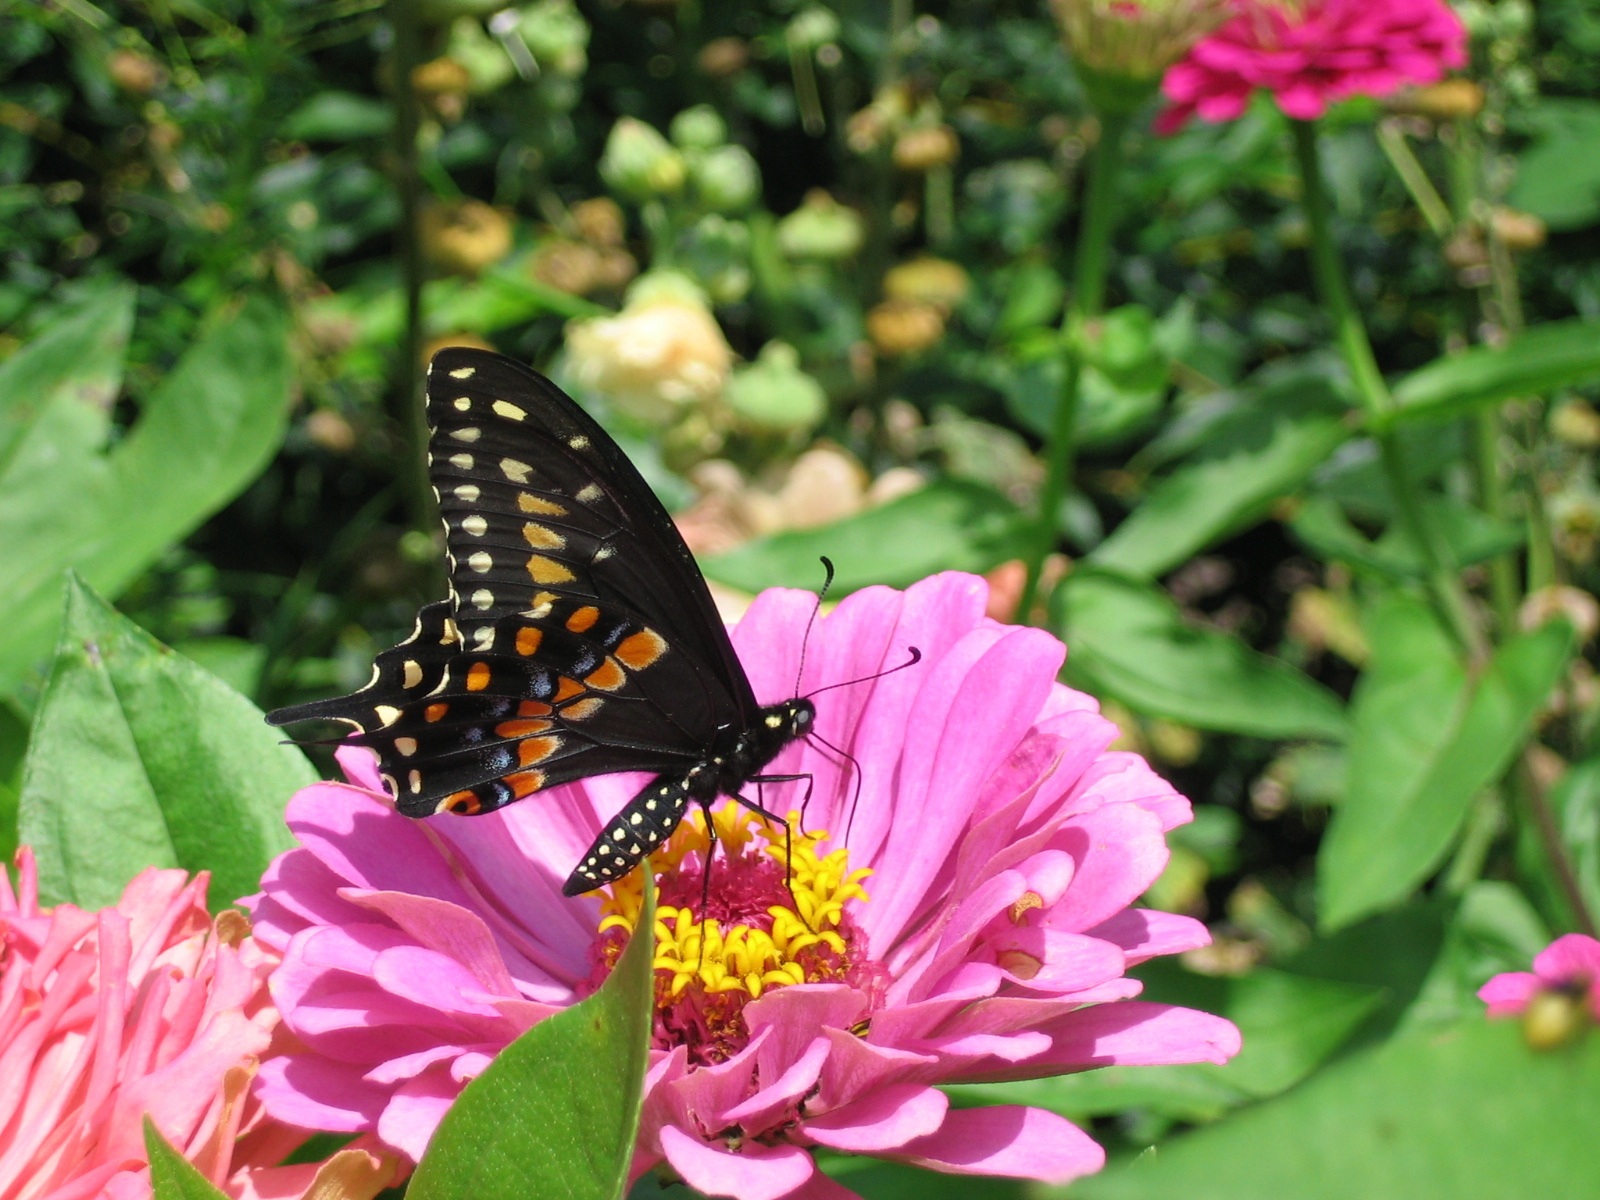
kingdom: Animalia
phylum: Arthropoda
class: Insecta
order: Lepidoptera
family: Papilionidae
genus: Papilio
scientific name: Papilio polyxenes
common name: Black swallowtail
